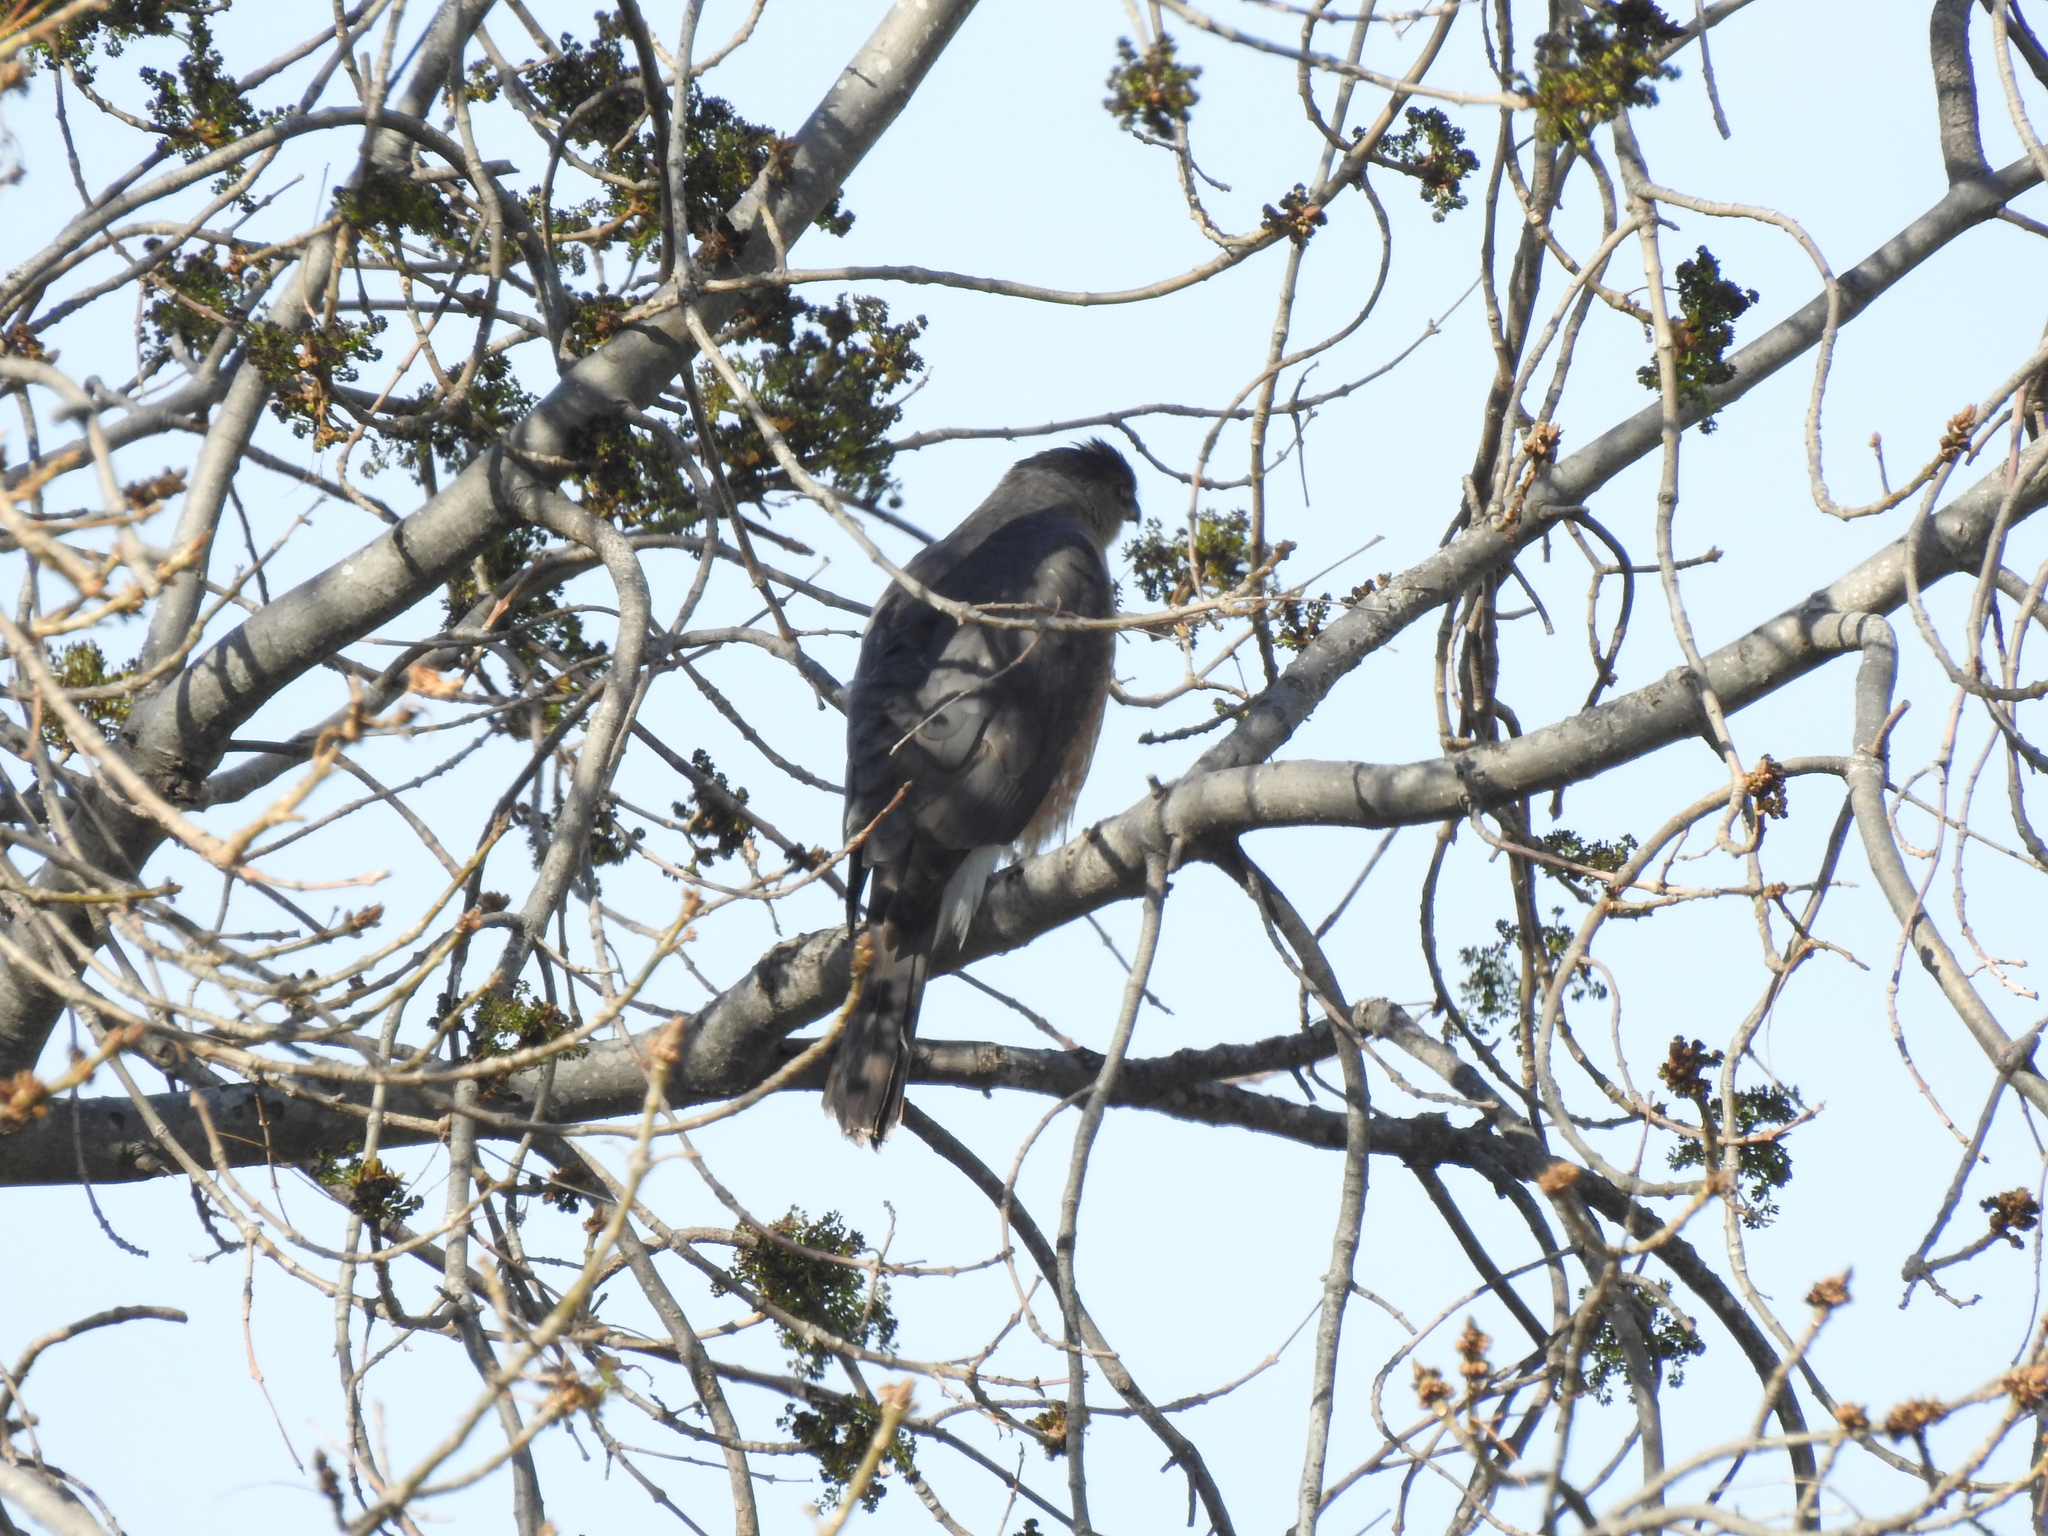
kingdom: Animalia
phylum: Chordata
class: Aves
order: Accipitriformes
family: Accipitridae
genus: Accipiter
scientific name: Accipiter cooperii
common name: Cooper's hawk
